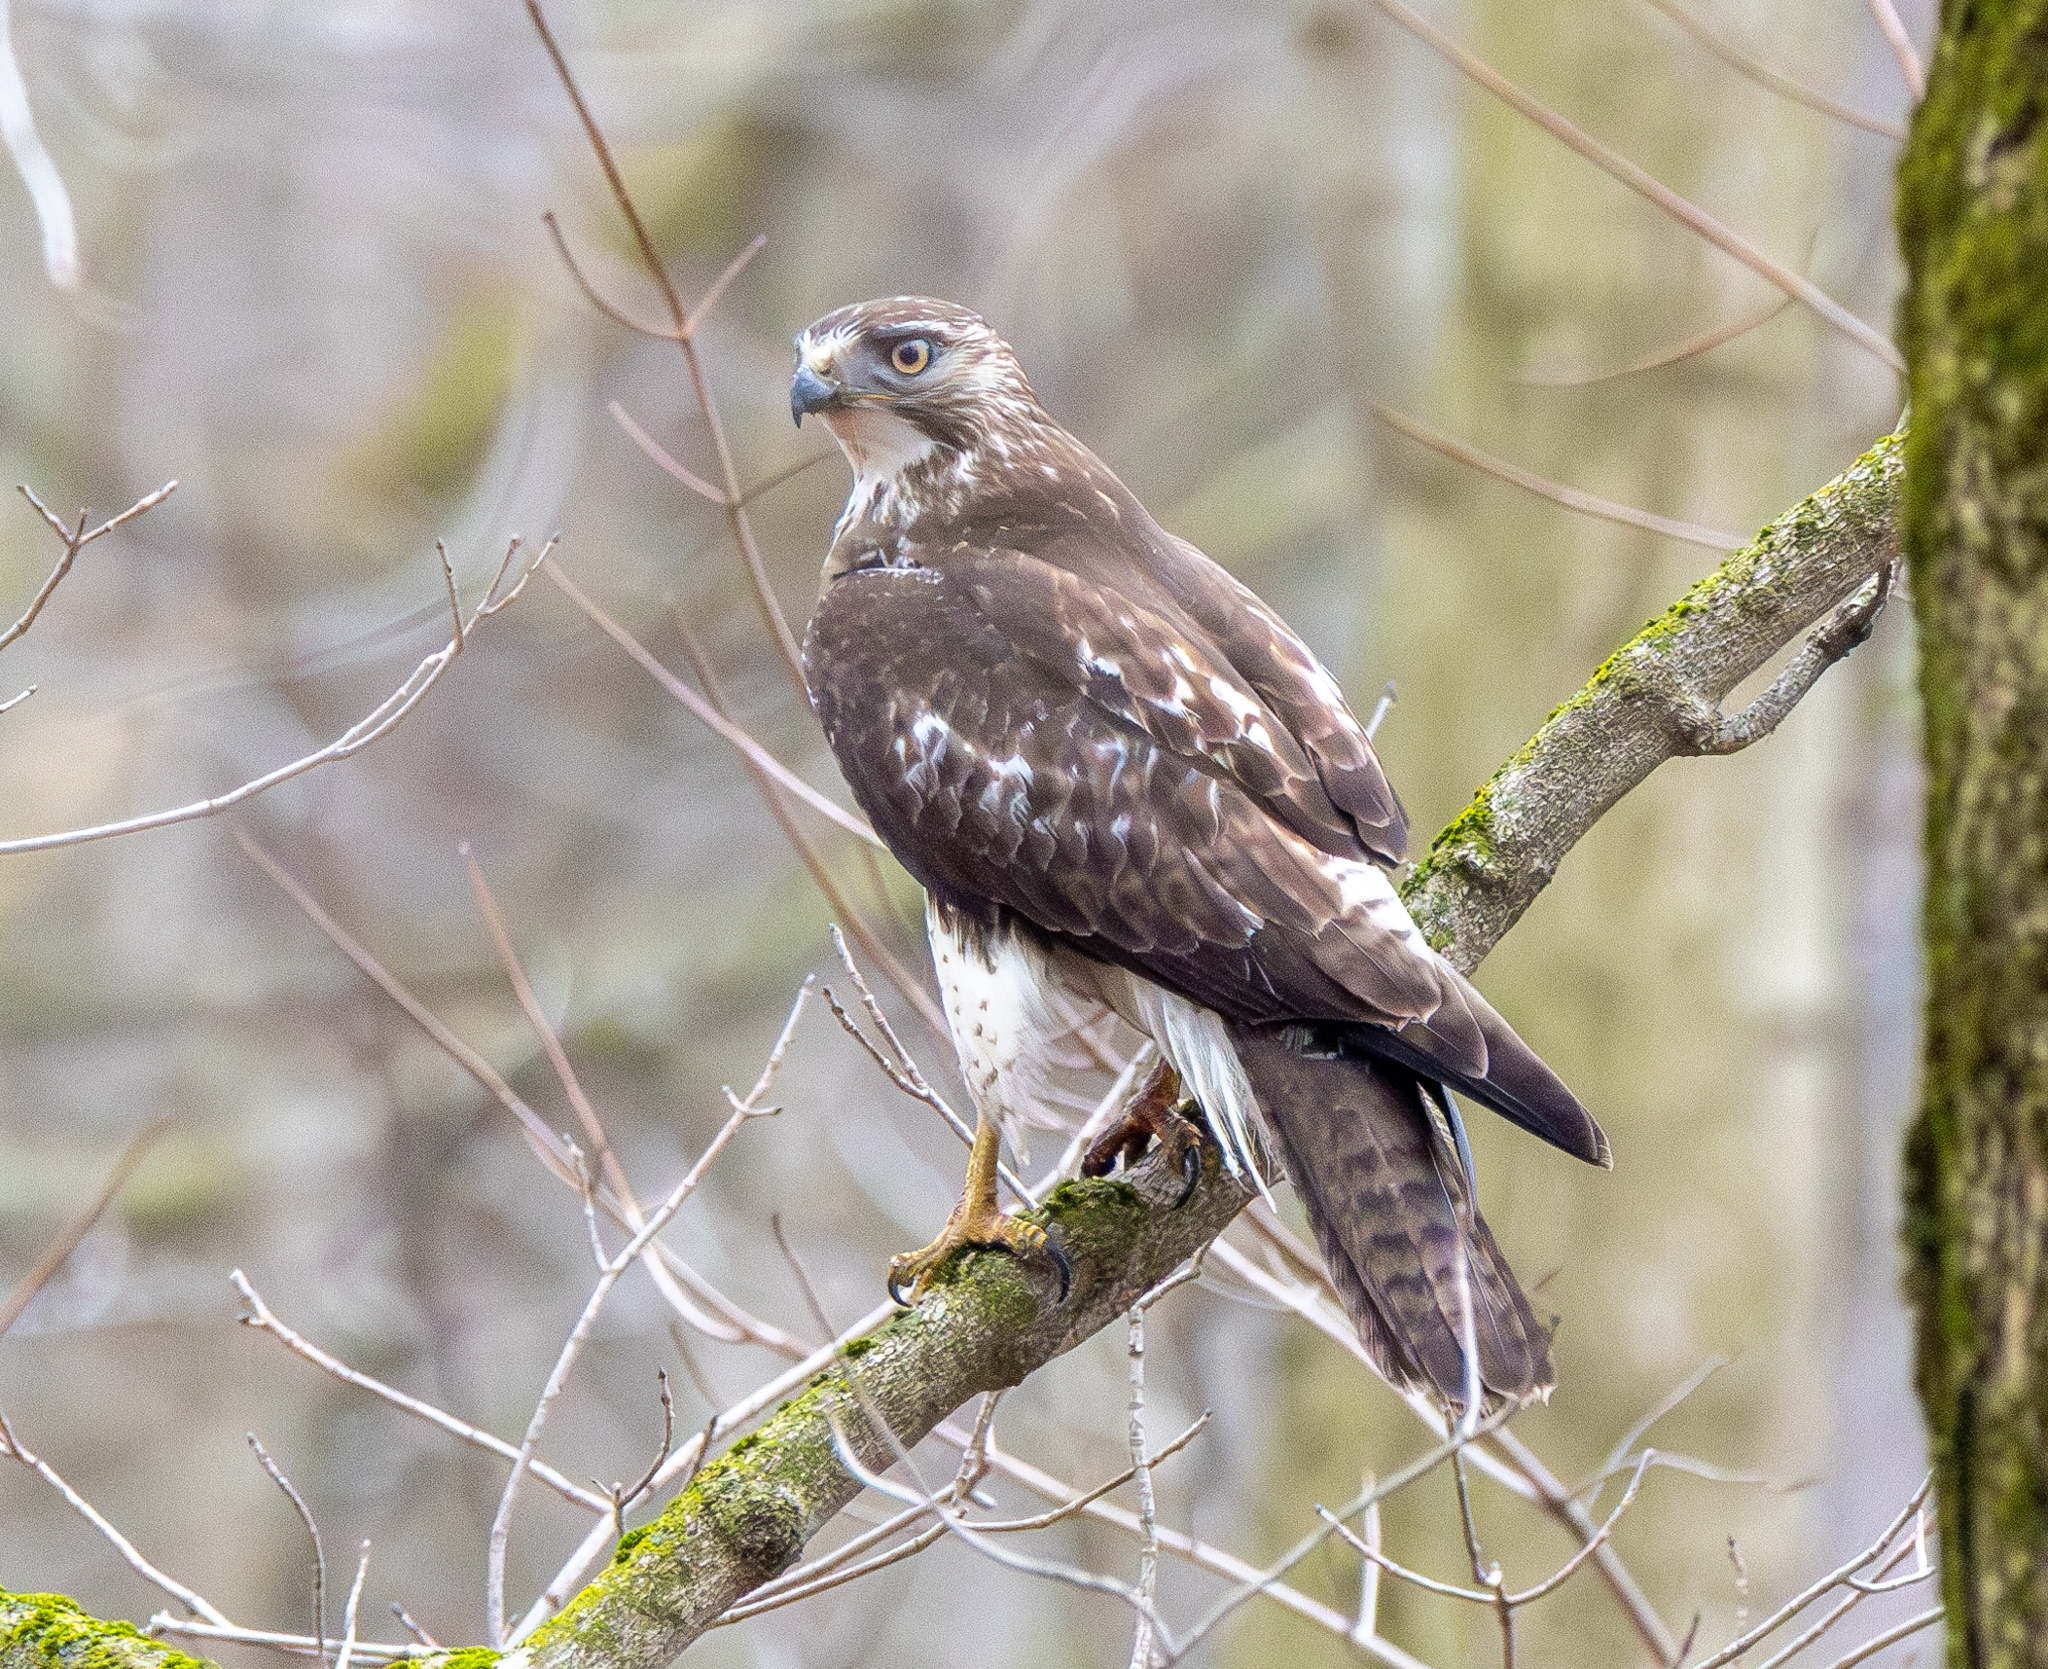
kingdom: Animalia
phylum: Chordata
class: Aves
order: Accipitriformes
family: Accipitridae
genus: Buteo
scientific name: Buteo jamaicensis
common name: Red-tailed hawk
